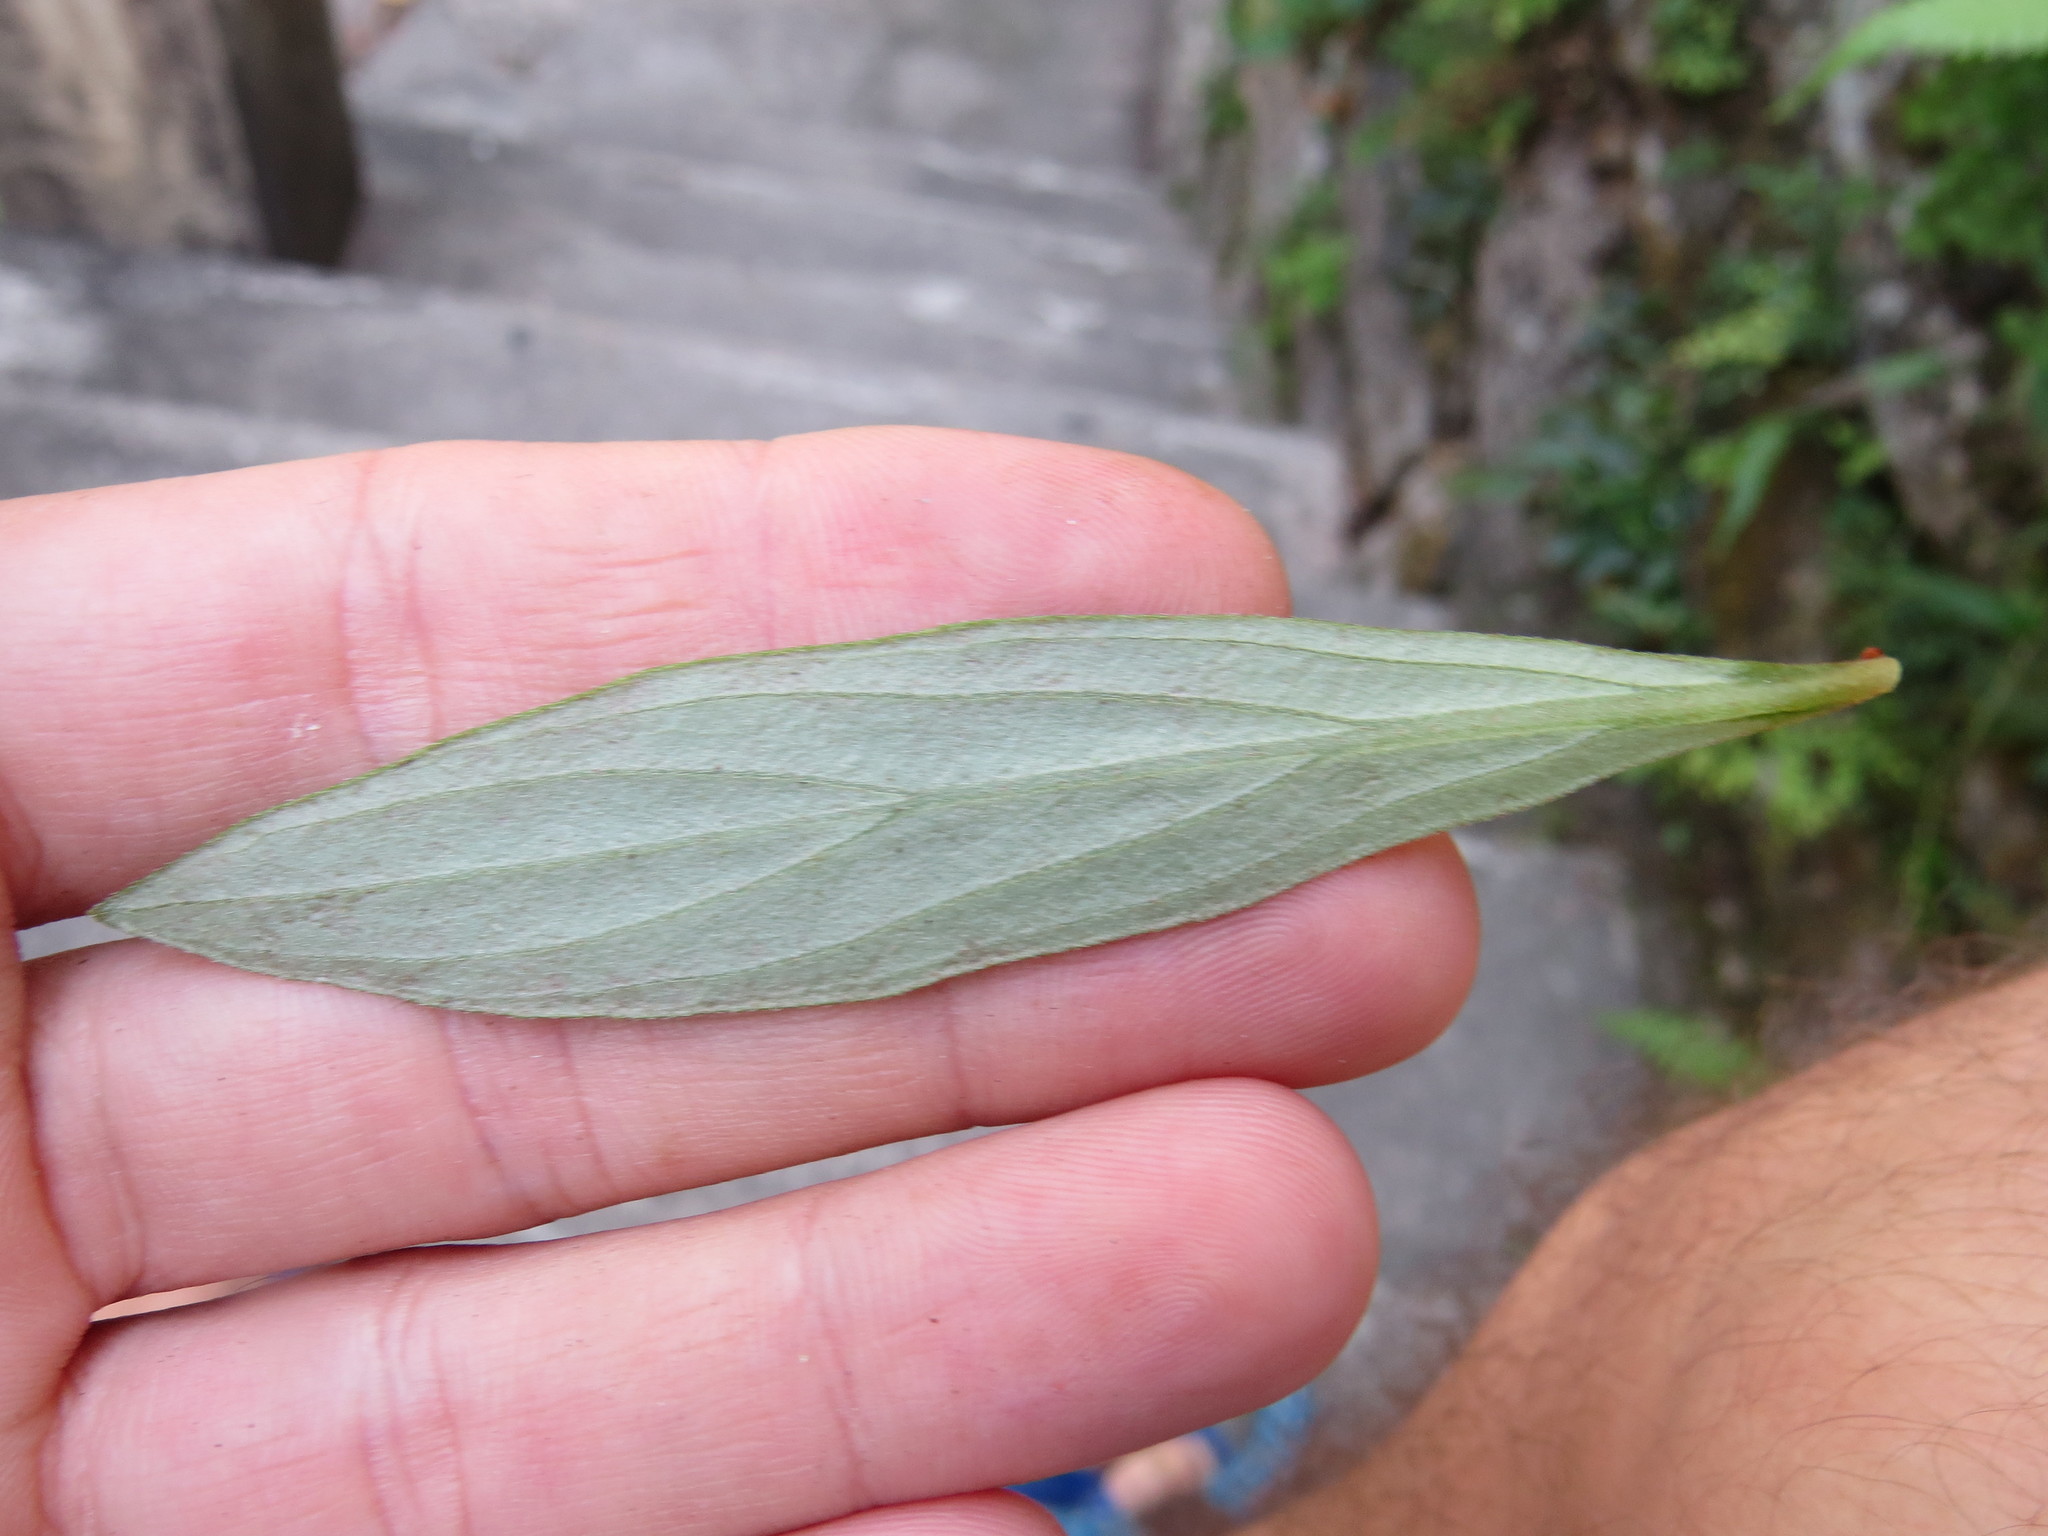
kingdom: Plantae
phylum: Tracheophyta
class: Magnoliopsida
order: Lamiales
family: Gesneriaceae
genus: Seemannia
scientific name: Seemannia sylvatica
